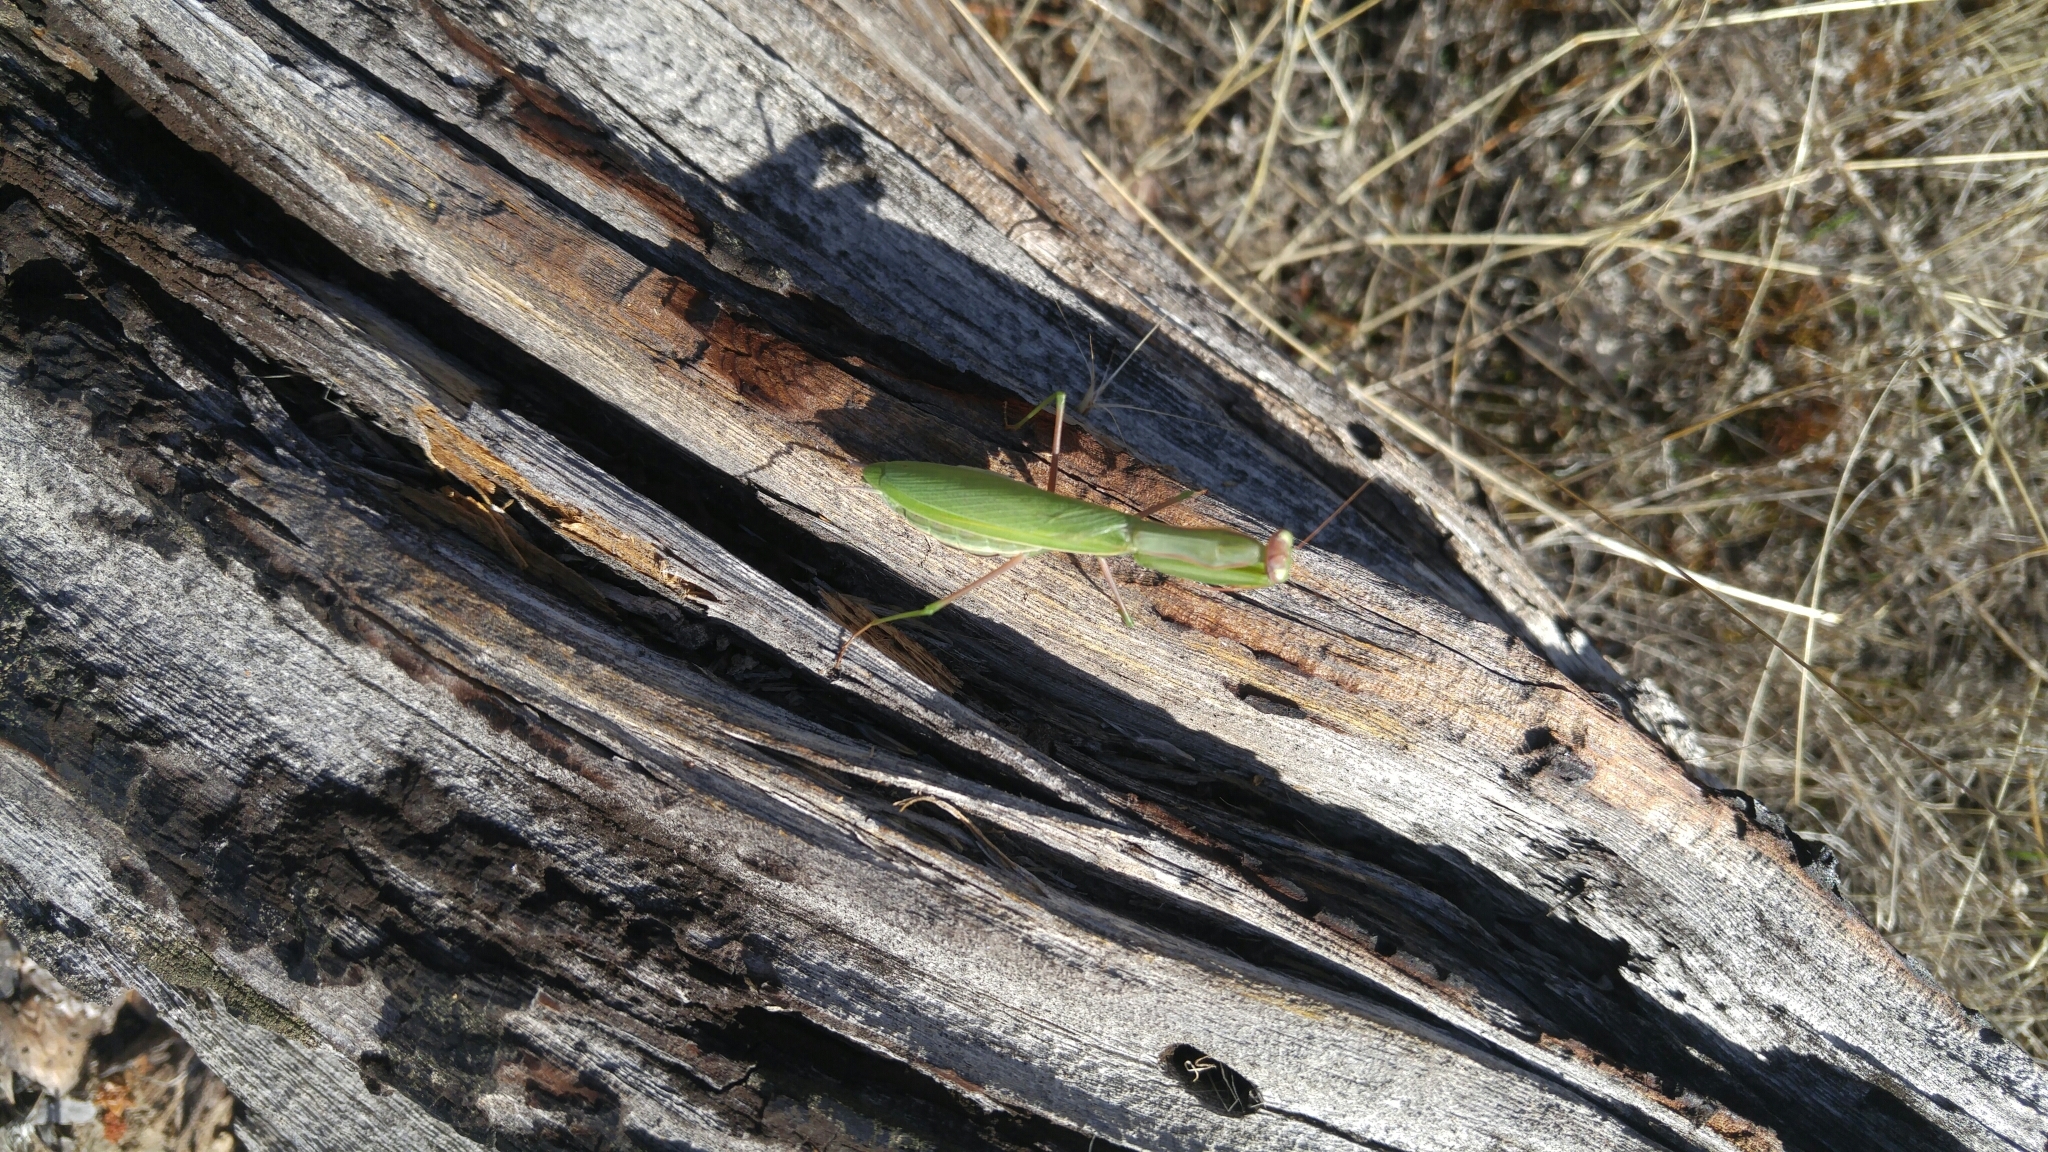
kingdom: Animalia
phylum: Arthropoda
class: Insecta
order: Mantodea
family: Mantidae
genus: Mantis
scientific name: Mantis religiosa
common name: Praying mantis
